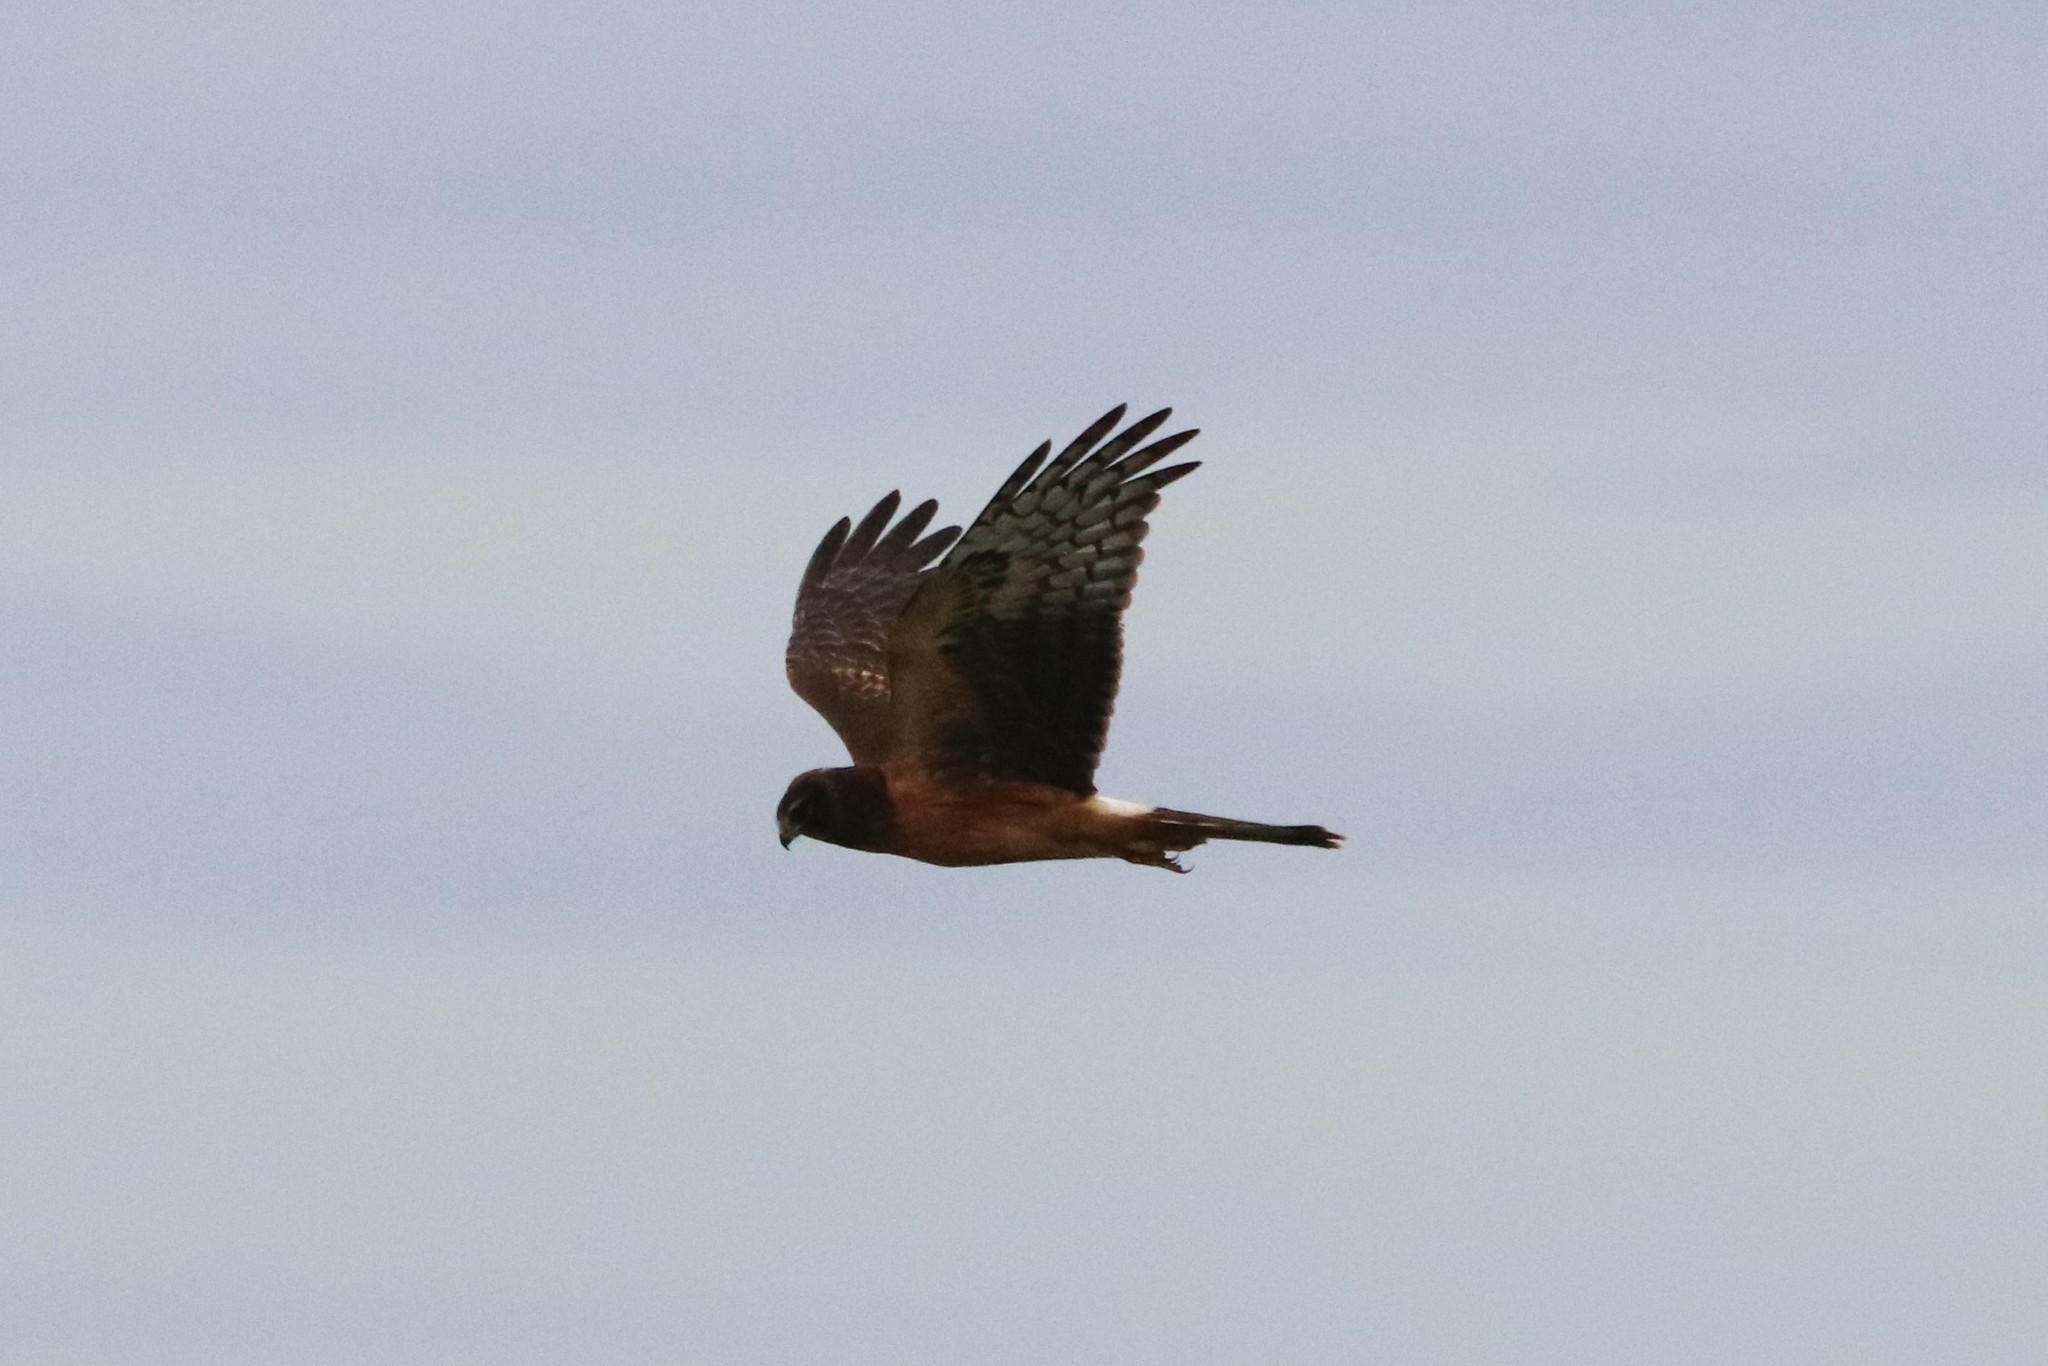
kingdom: Animalia
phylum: Chordata
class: Aves
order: Accipitriformes
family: Accipitridae
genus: Circus
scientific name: Circus cyaneus
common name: Hen harrier
